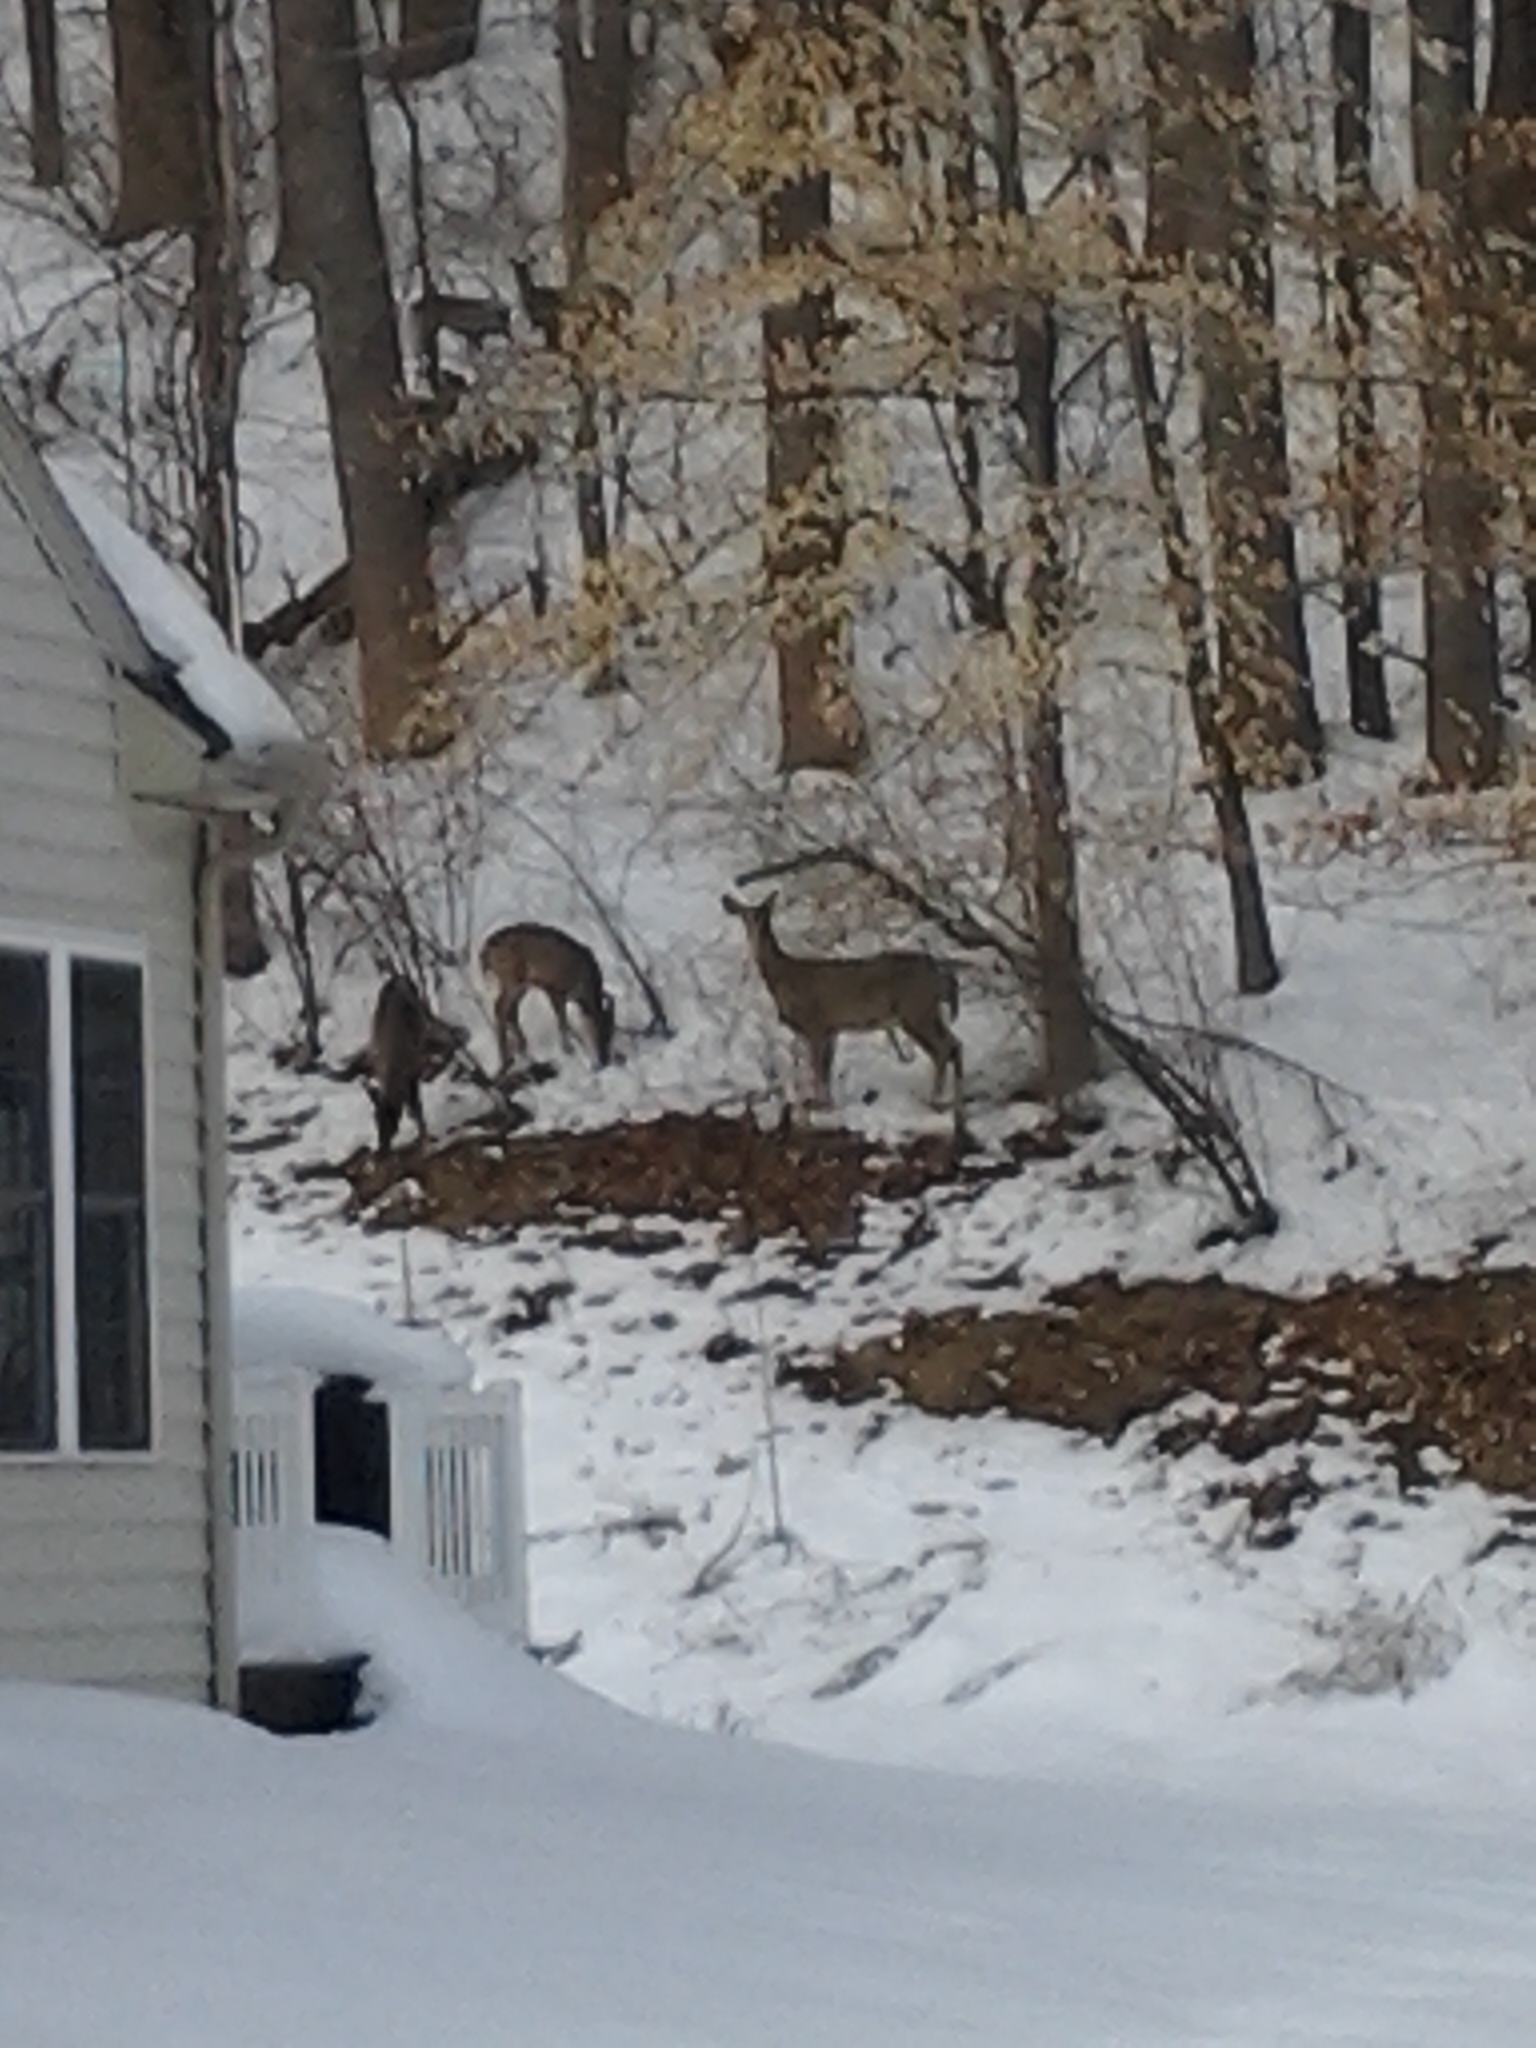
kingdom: Animalia
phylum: Chordata
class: Mammalia
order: Artiodactyla
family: Cervidae
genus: Odocoileus
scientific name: Odocoileus virginianus
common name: White-tailed deer
